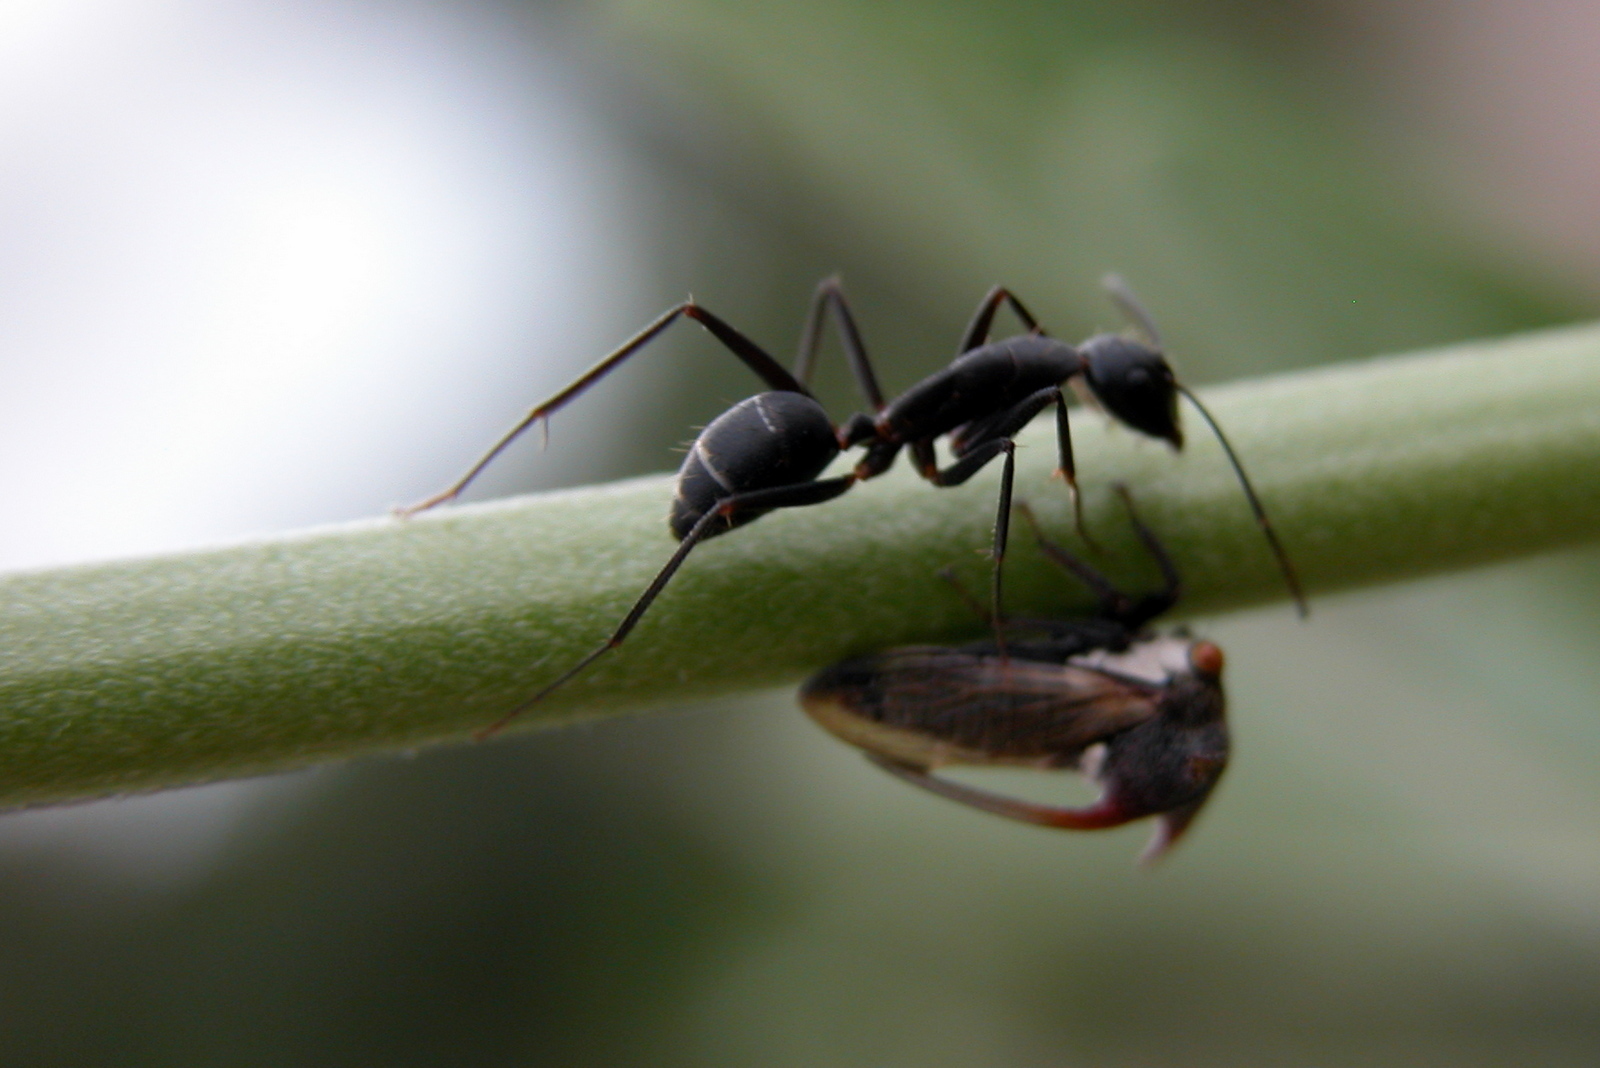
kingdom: Animalia
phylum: Arthropoda
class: Insecta
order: Hymenoptera
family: Formicidae
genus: Camponotus
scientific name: Camponotus compressus
